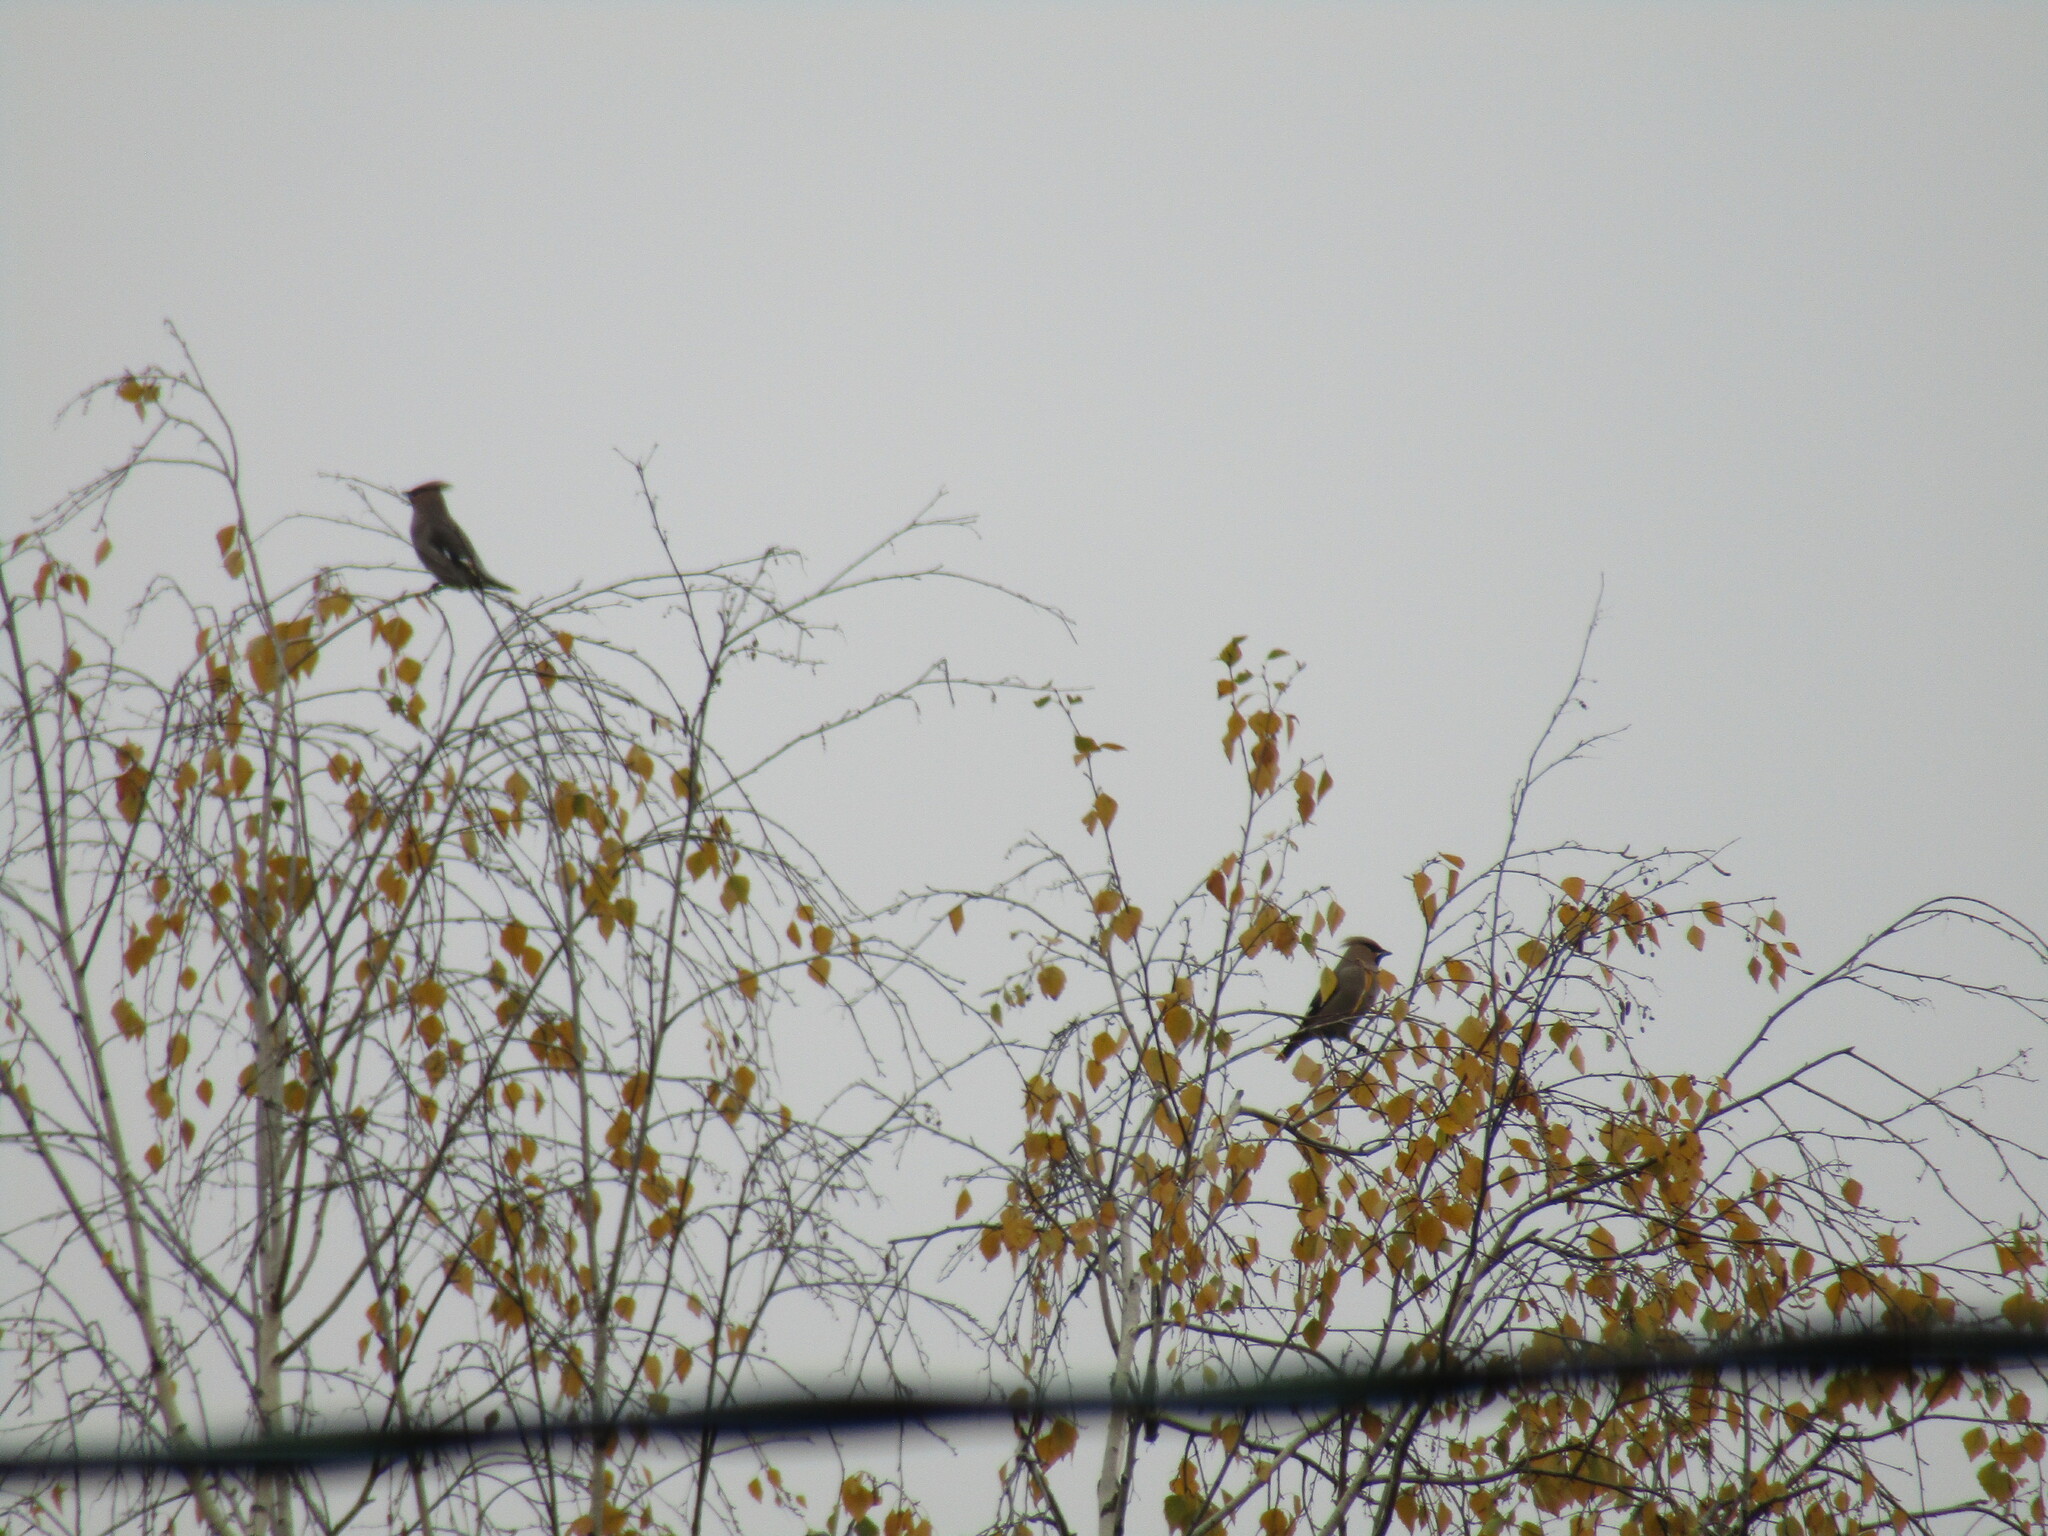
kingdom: Animalia
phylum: Chordata
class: Aves
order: Passeriformes
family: Bombycillidae
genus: Bombycilla
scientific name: Bombycilla garrulus
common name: Bohemian waxwing
